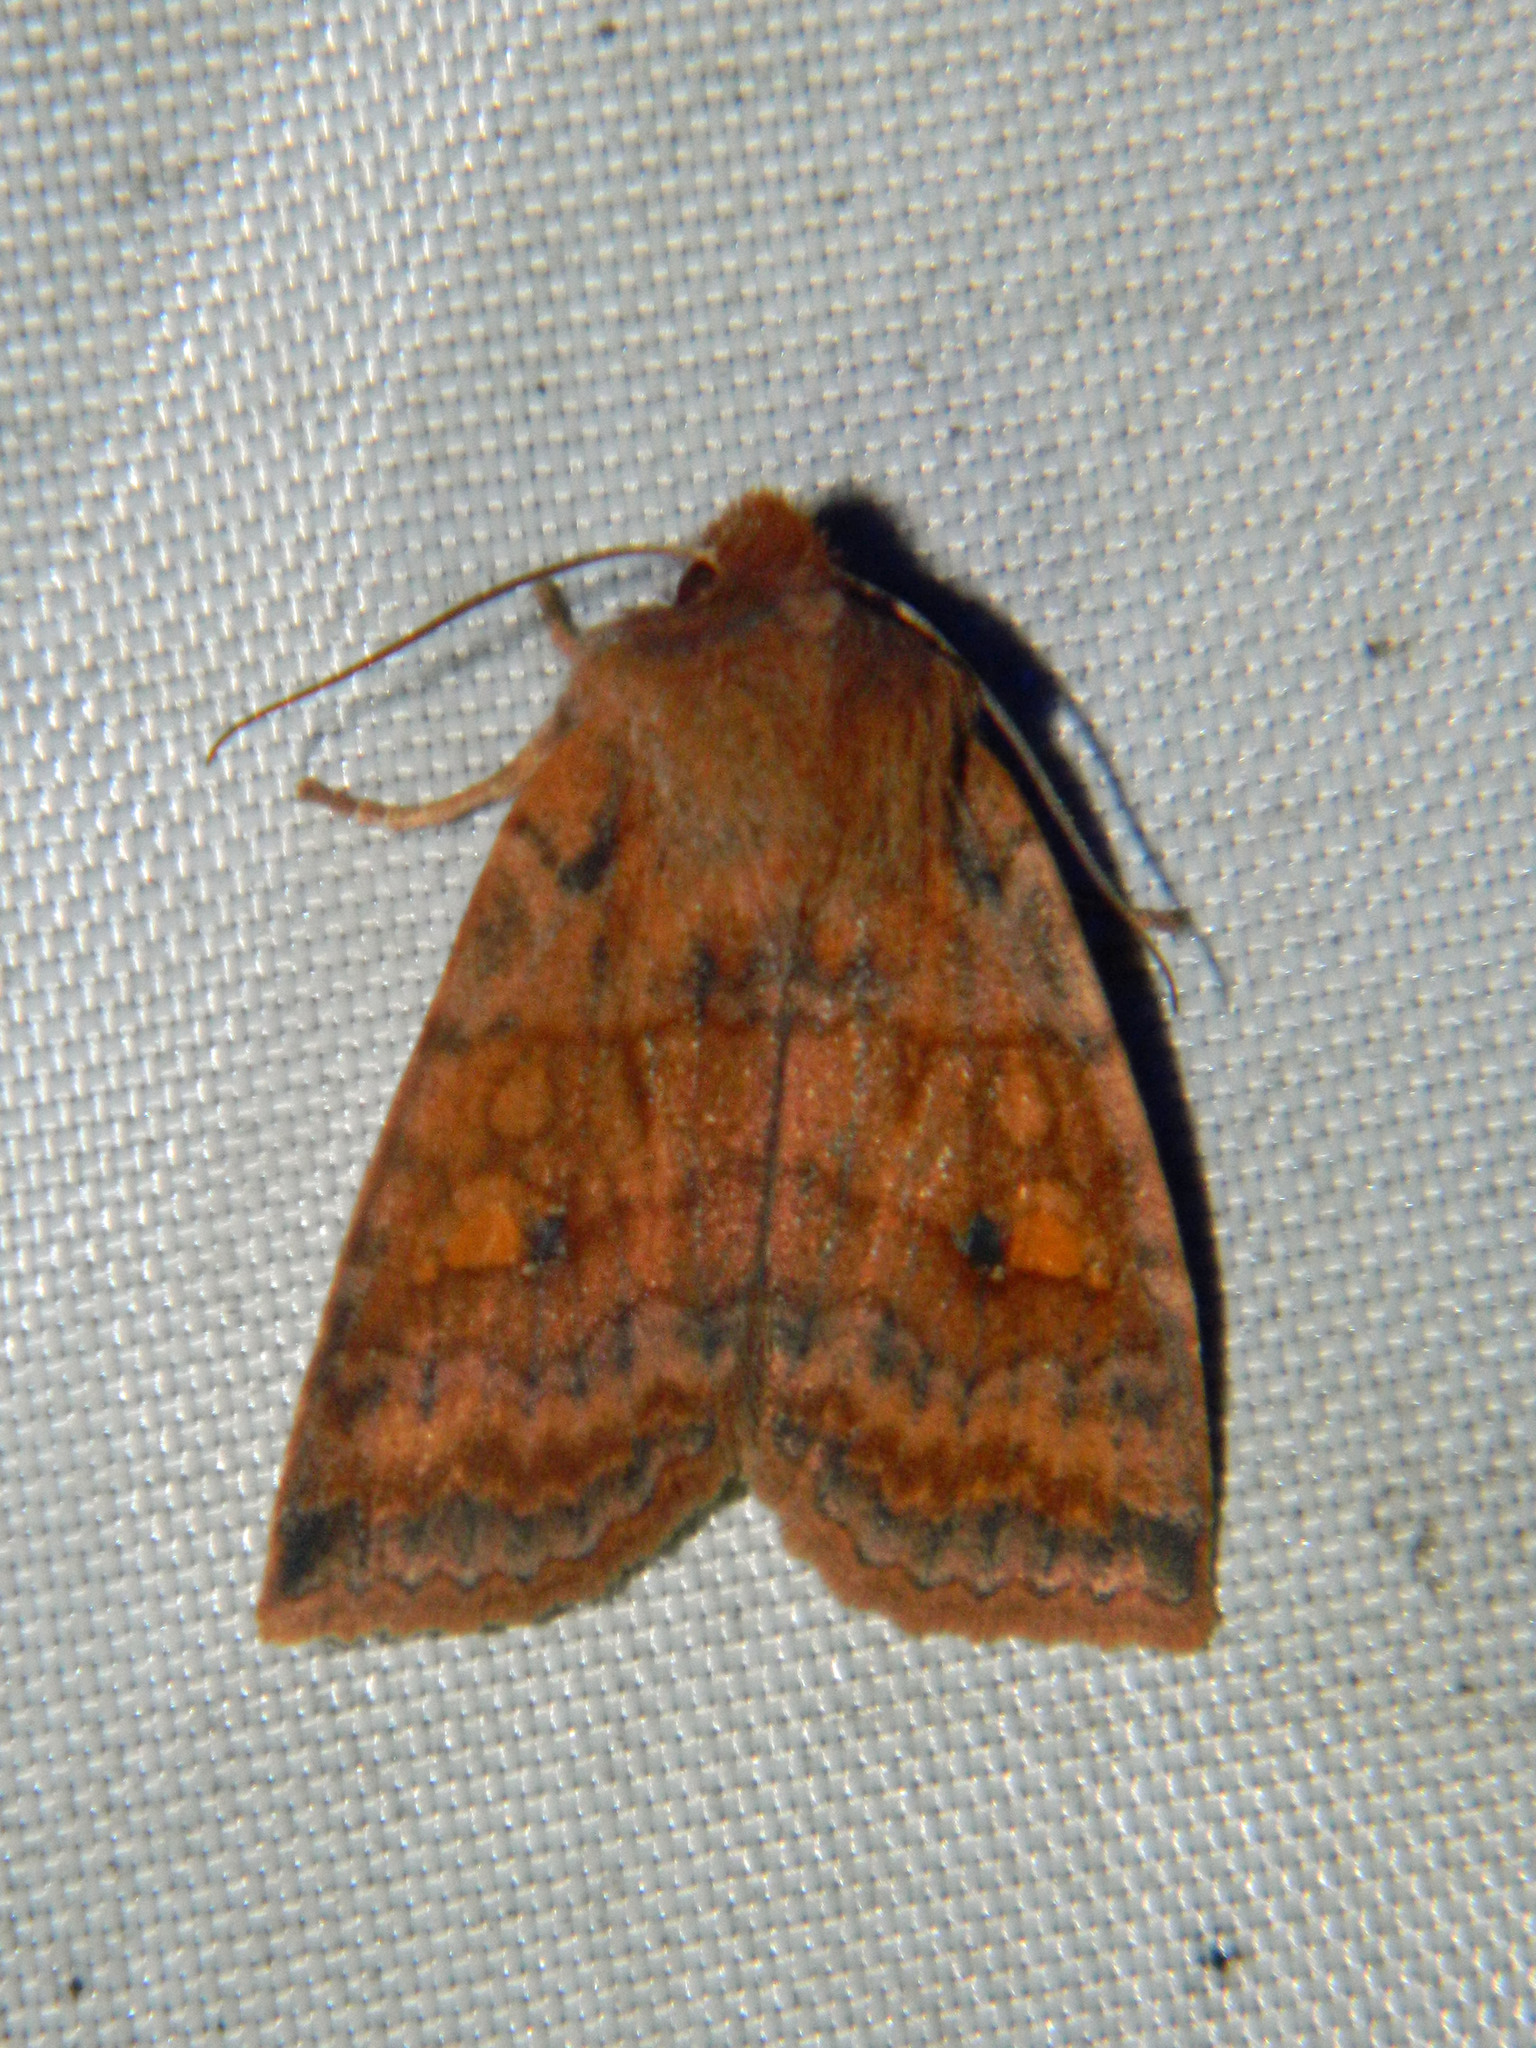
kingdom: Animalia
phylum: Arthropoda
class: Insecta
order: Lepidoptera
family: Noctuidae
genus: Eupsilia
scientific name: Eupsilia tristigmata
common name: Three-spotted sallow
